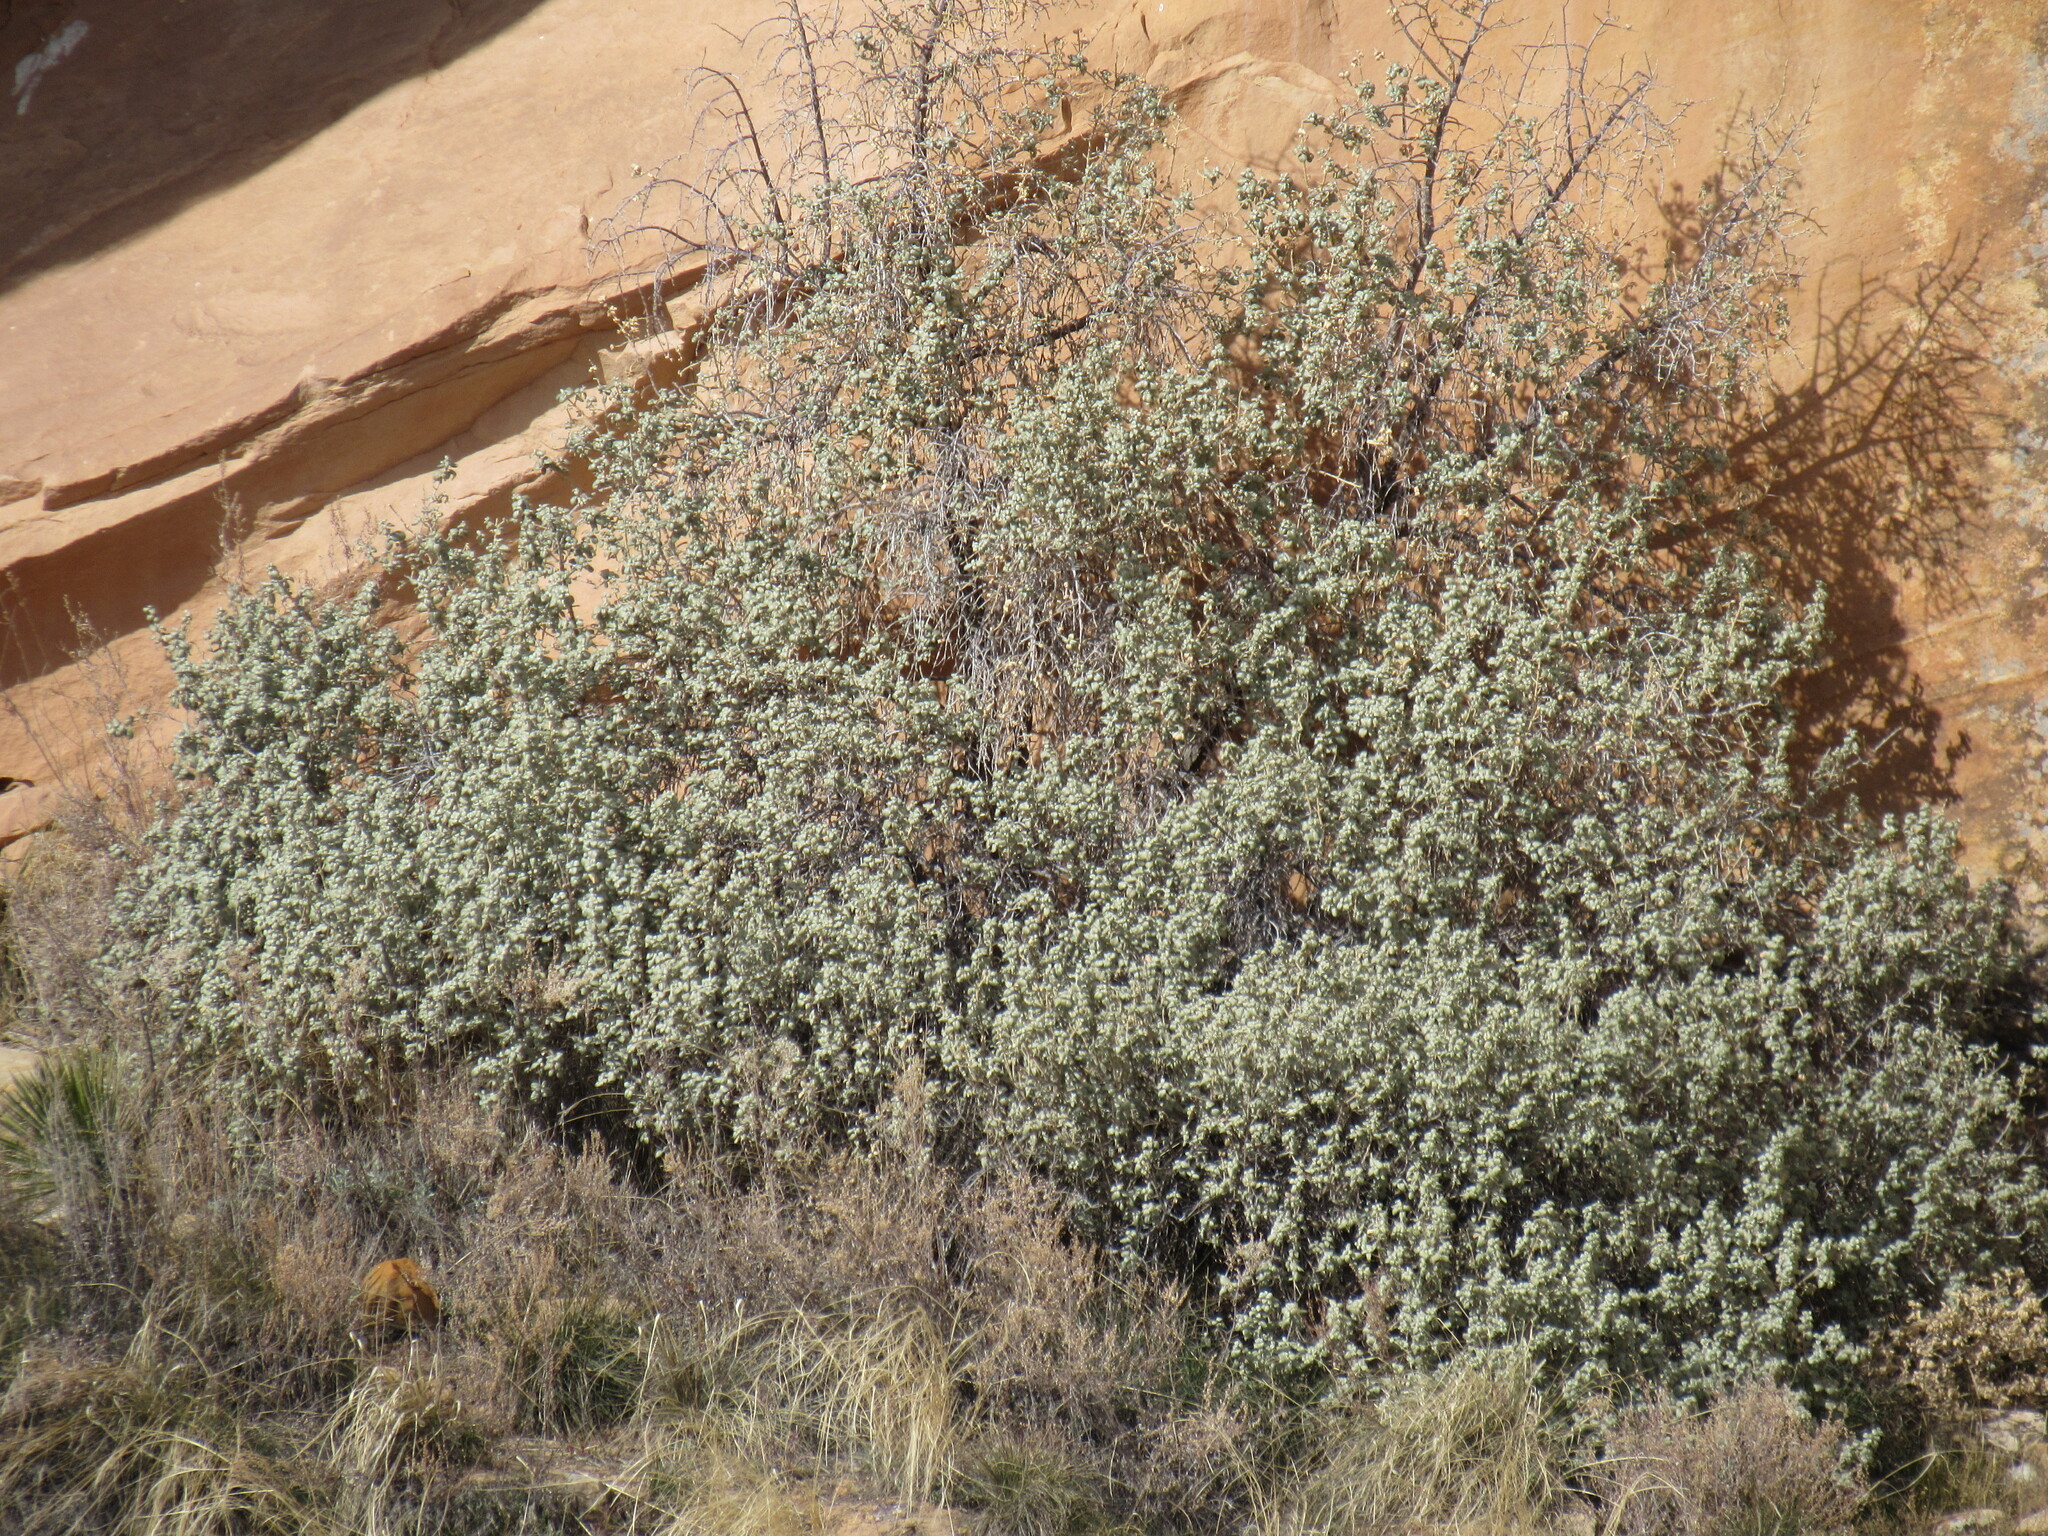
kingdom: Plantae
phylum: Tracheophyta
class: Magnoliopsida
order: Rosales
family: Elaeagnaceae
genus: Shepherdia
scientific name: Shepherdia rotundifolia
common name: Silverscale
